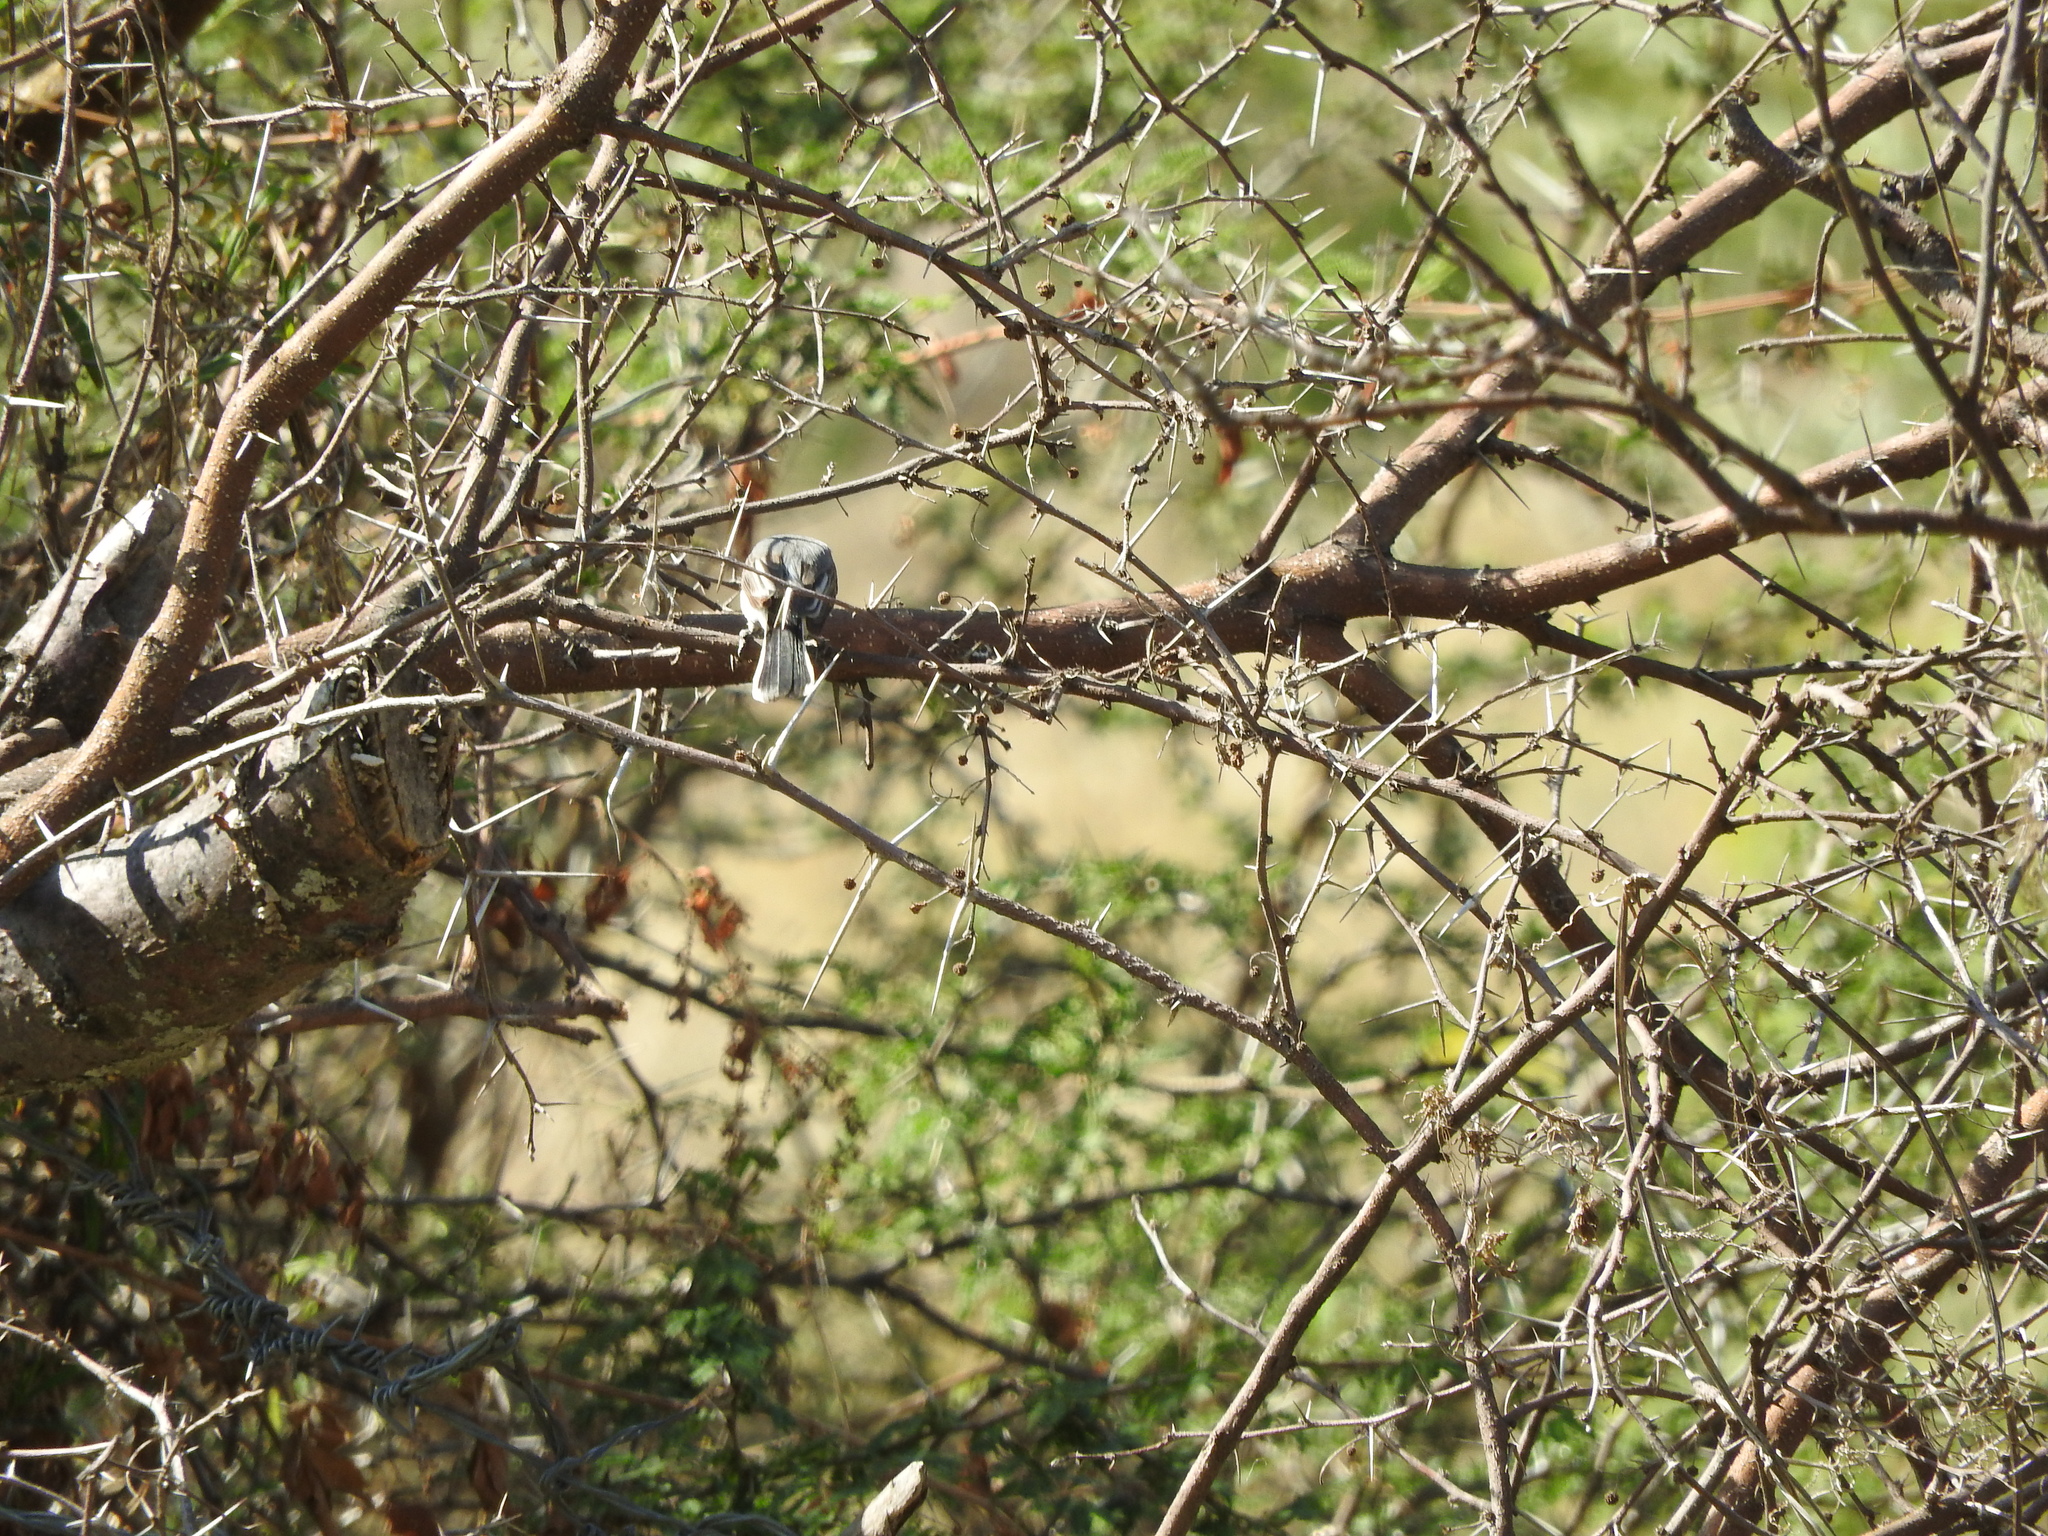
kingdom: Animalia
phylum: Chordata
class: Aves
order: Passeriformes
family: Polioptilidae
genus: Polioptila
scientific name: Polioptila caerulea
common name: Blue-gray gnatcatcher
